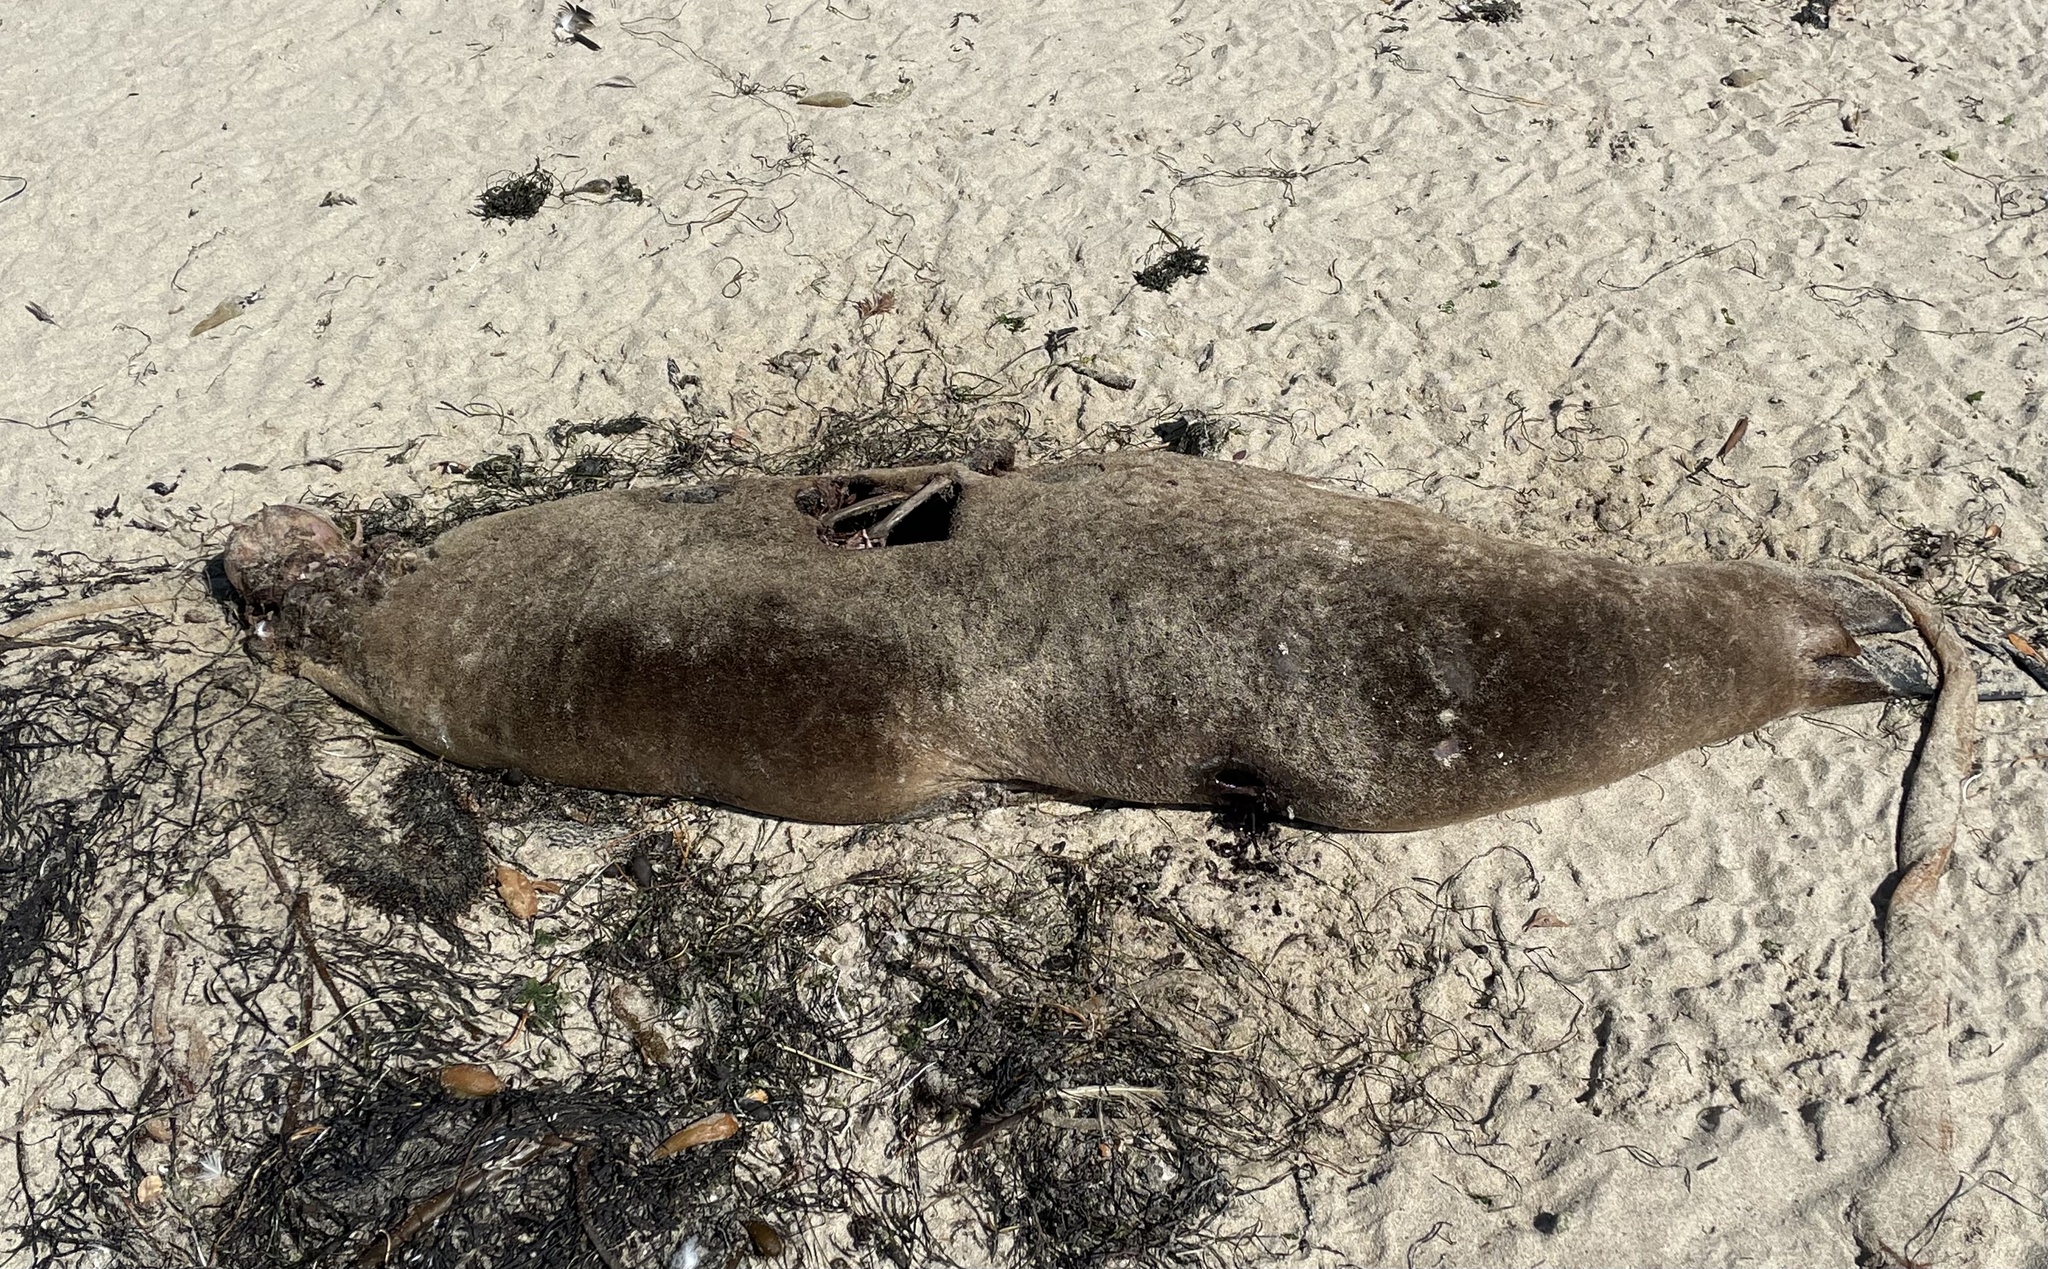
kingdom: Animalia
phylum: Chordata
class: Mammalia
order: Carnivora
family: Otariidae
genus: Zalophus
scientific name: Zalophus californianus
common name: California sea lion
